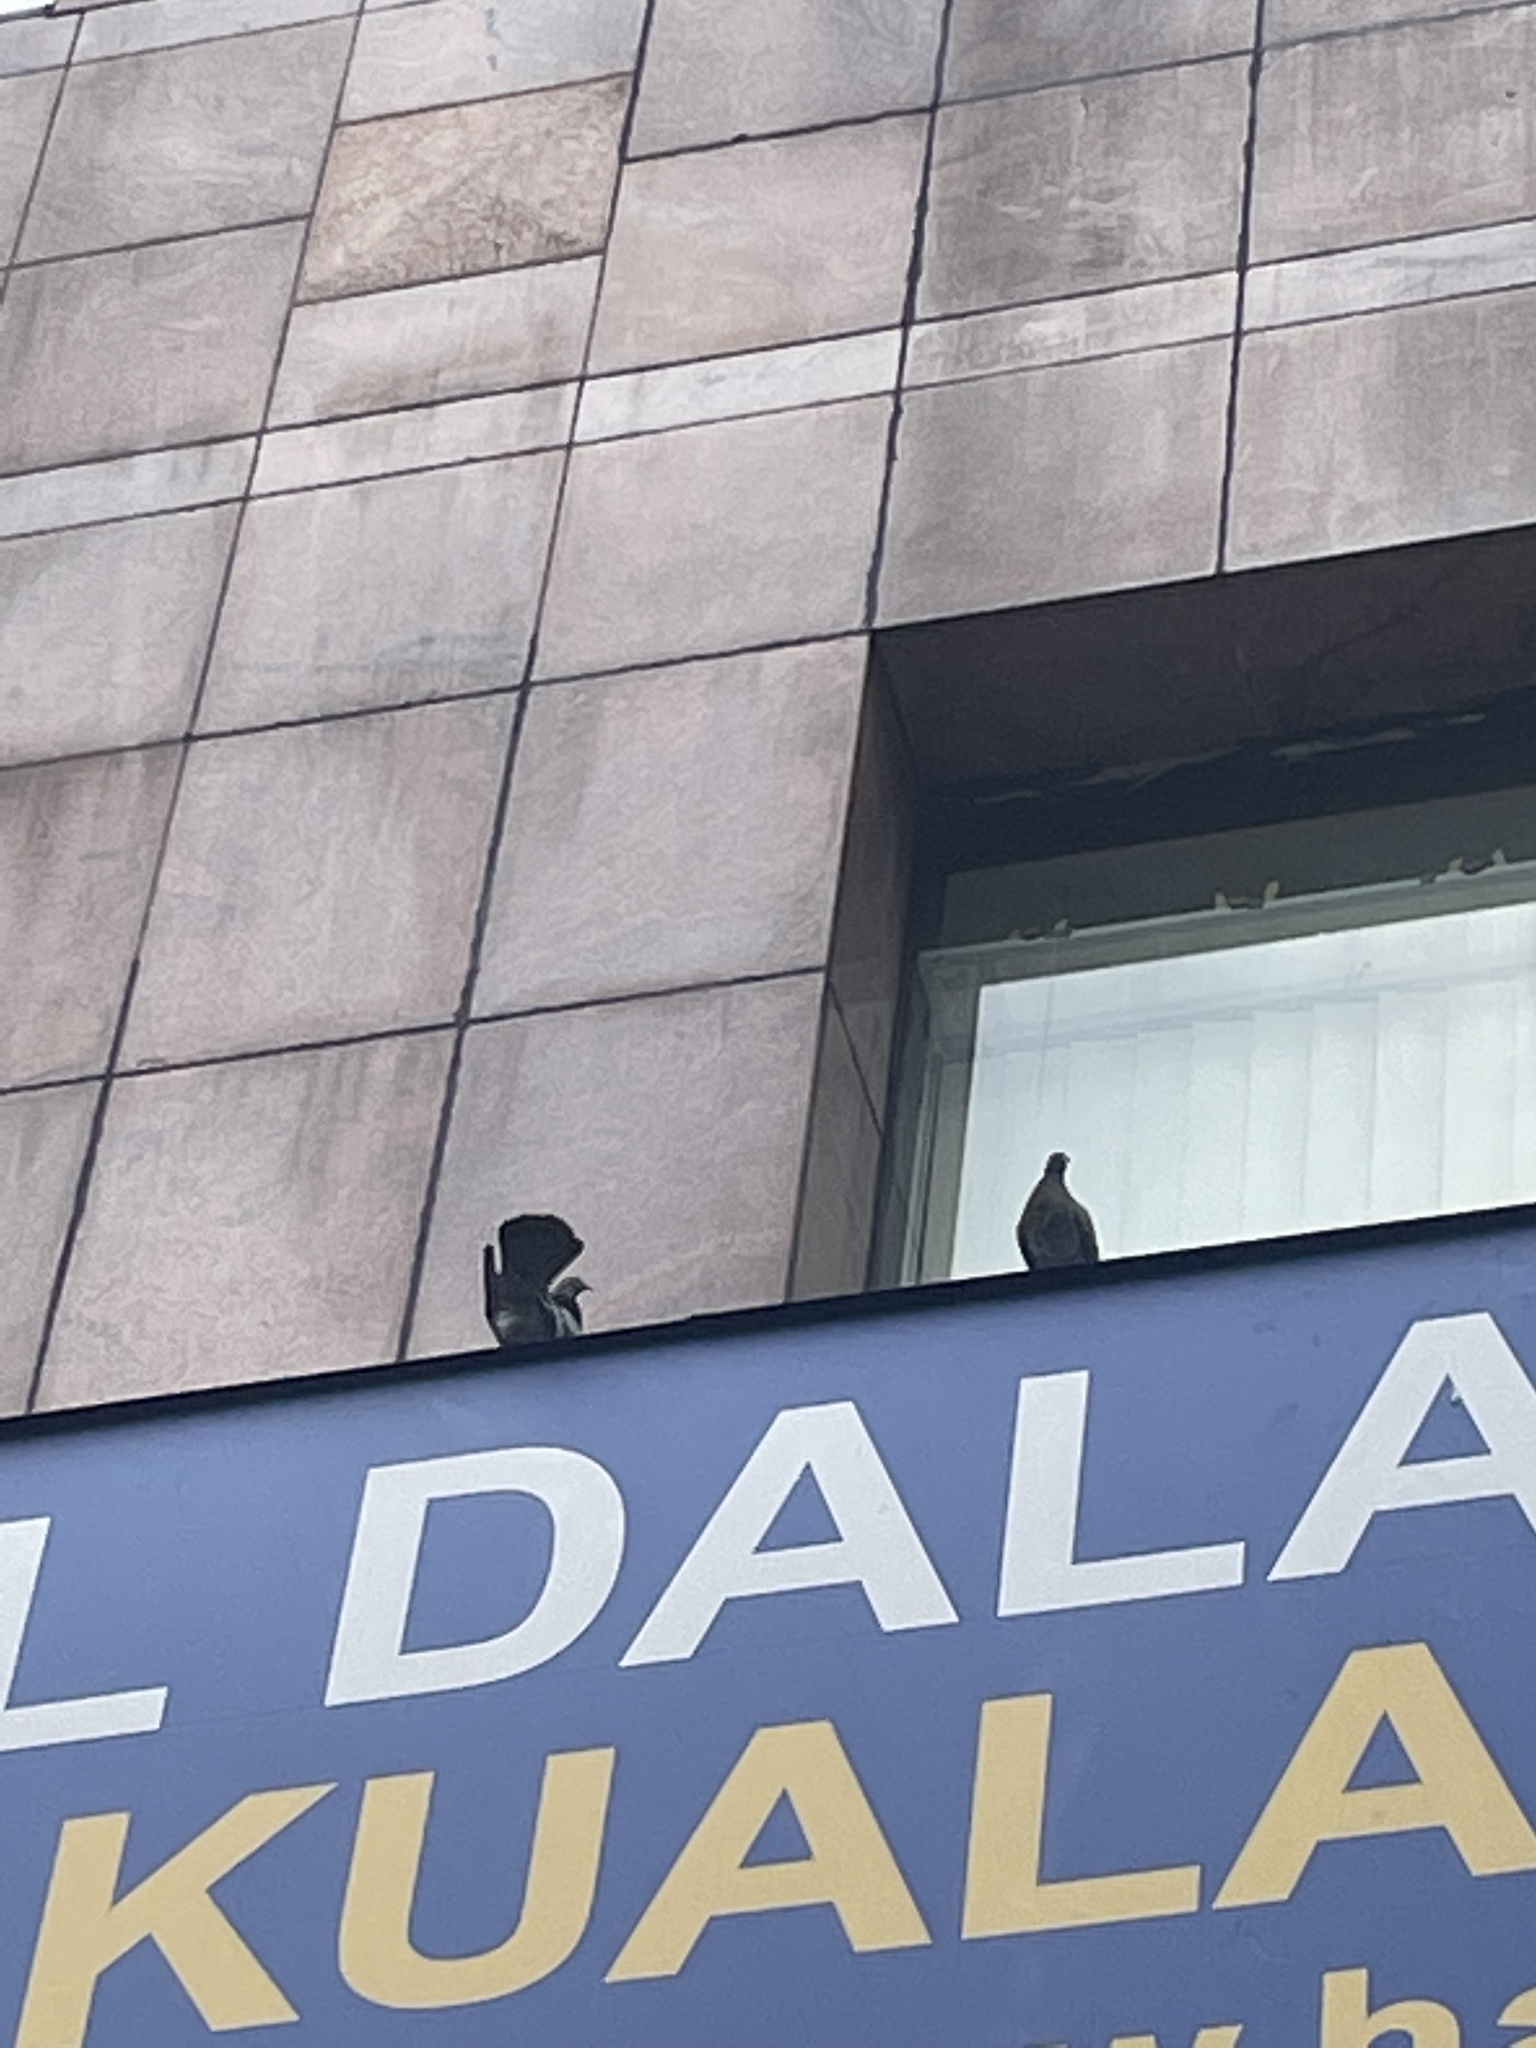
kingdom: Animalia
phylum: Chordata
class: Aves
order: Columbiformes
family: Columbidae
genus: Columba
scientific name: Columba livia
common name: Rock pigeon
